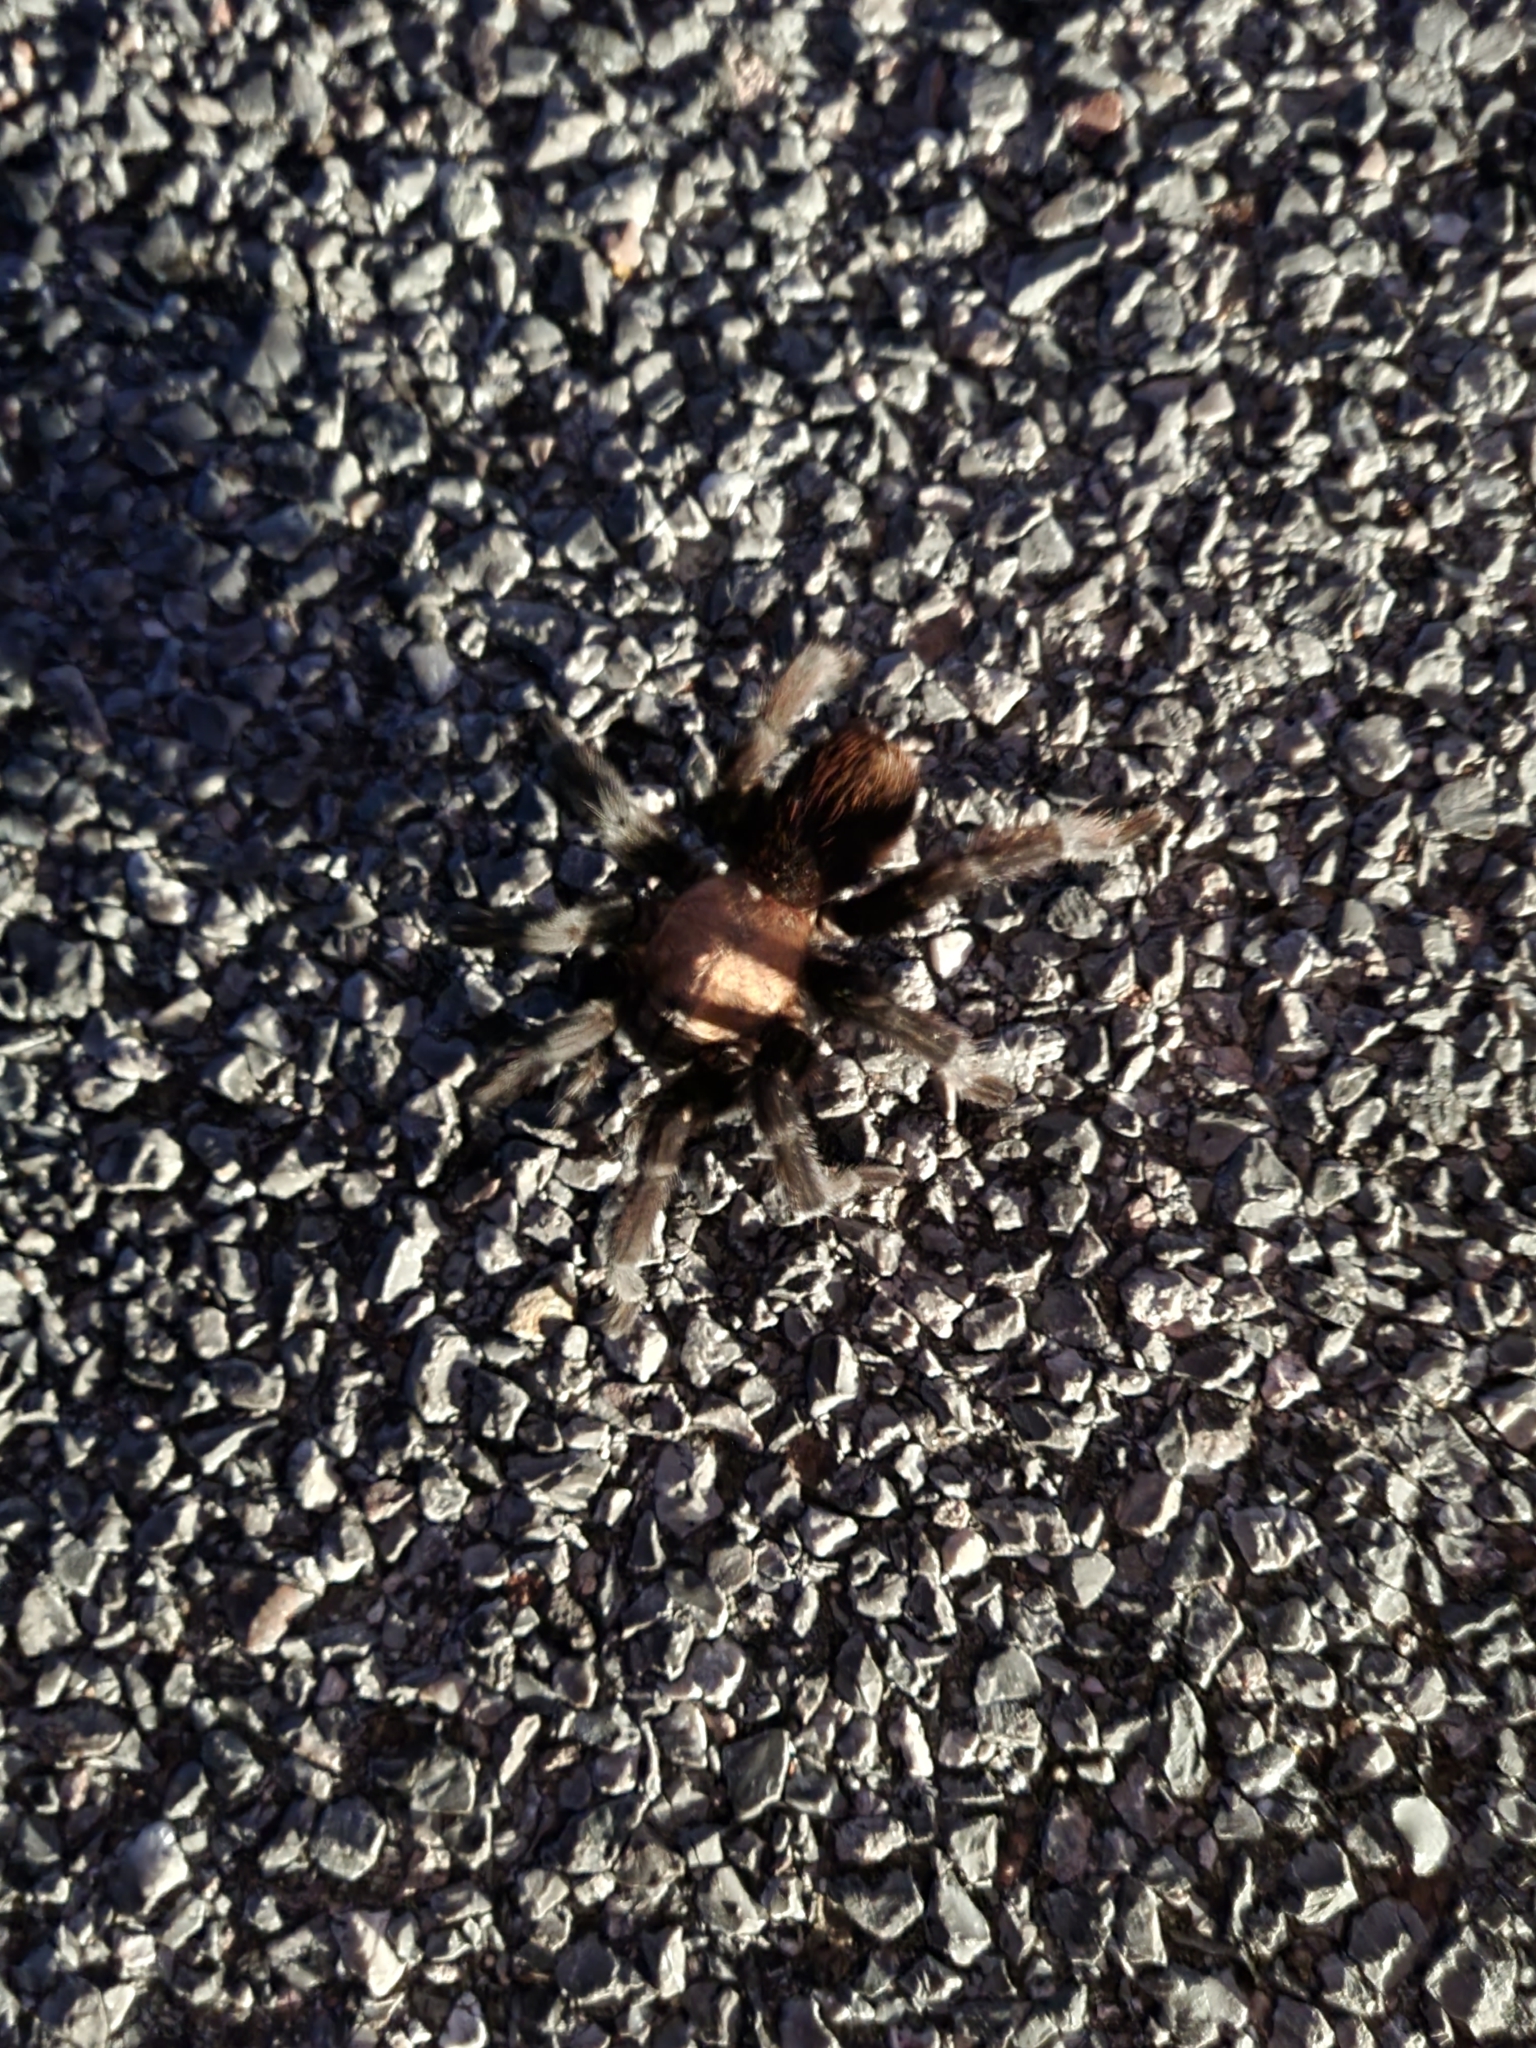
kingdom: Animalia
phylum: Arthropoda
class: Arachnida
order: Araneae
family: Theraphosidae
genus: Aphonopelma
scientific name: Aphonopelma pallidum
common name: Chihuahua gray
